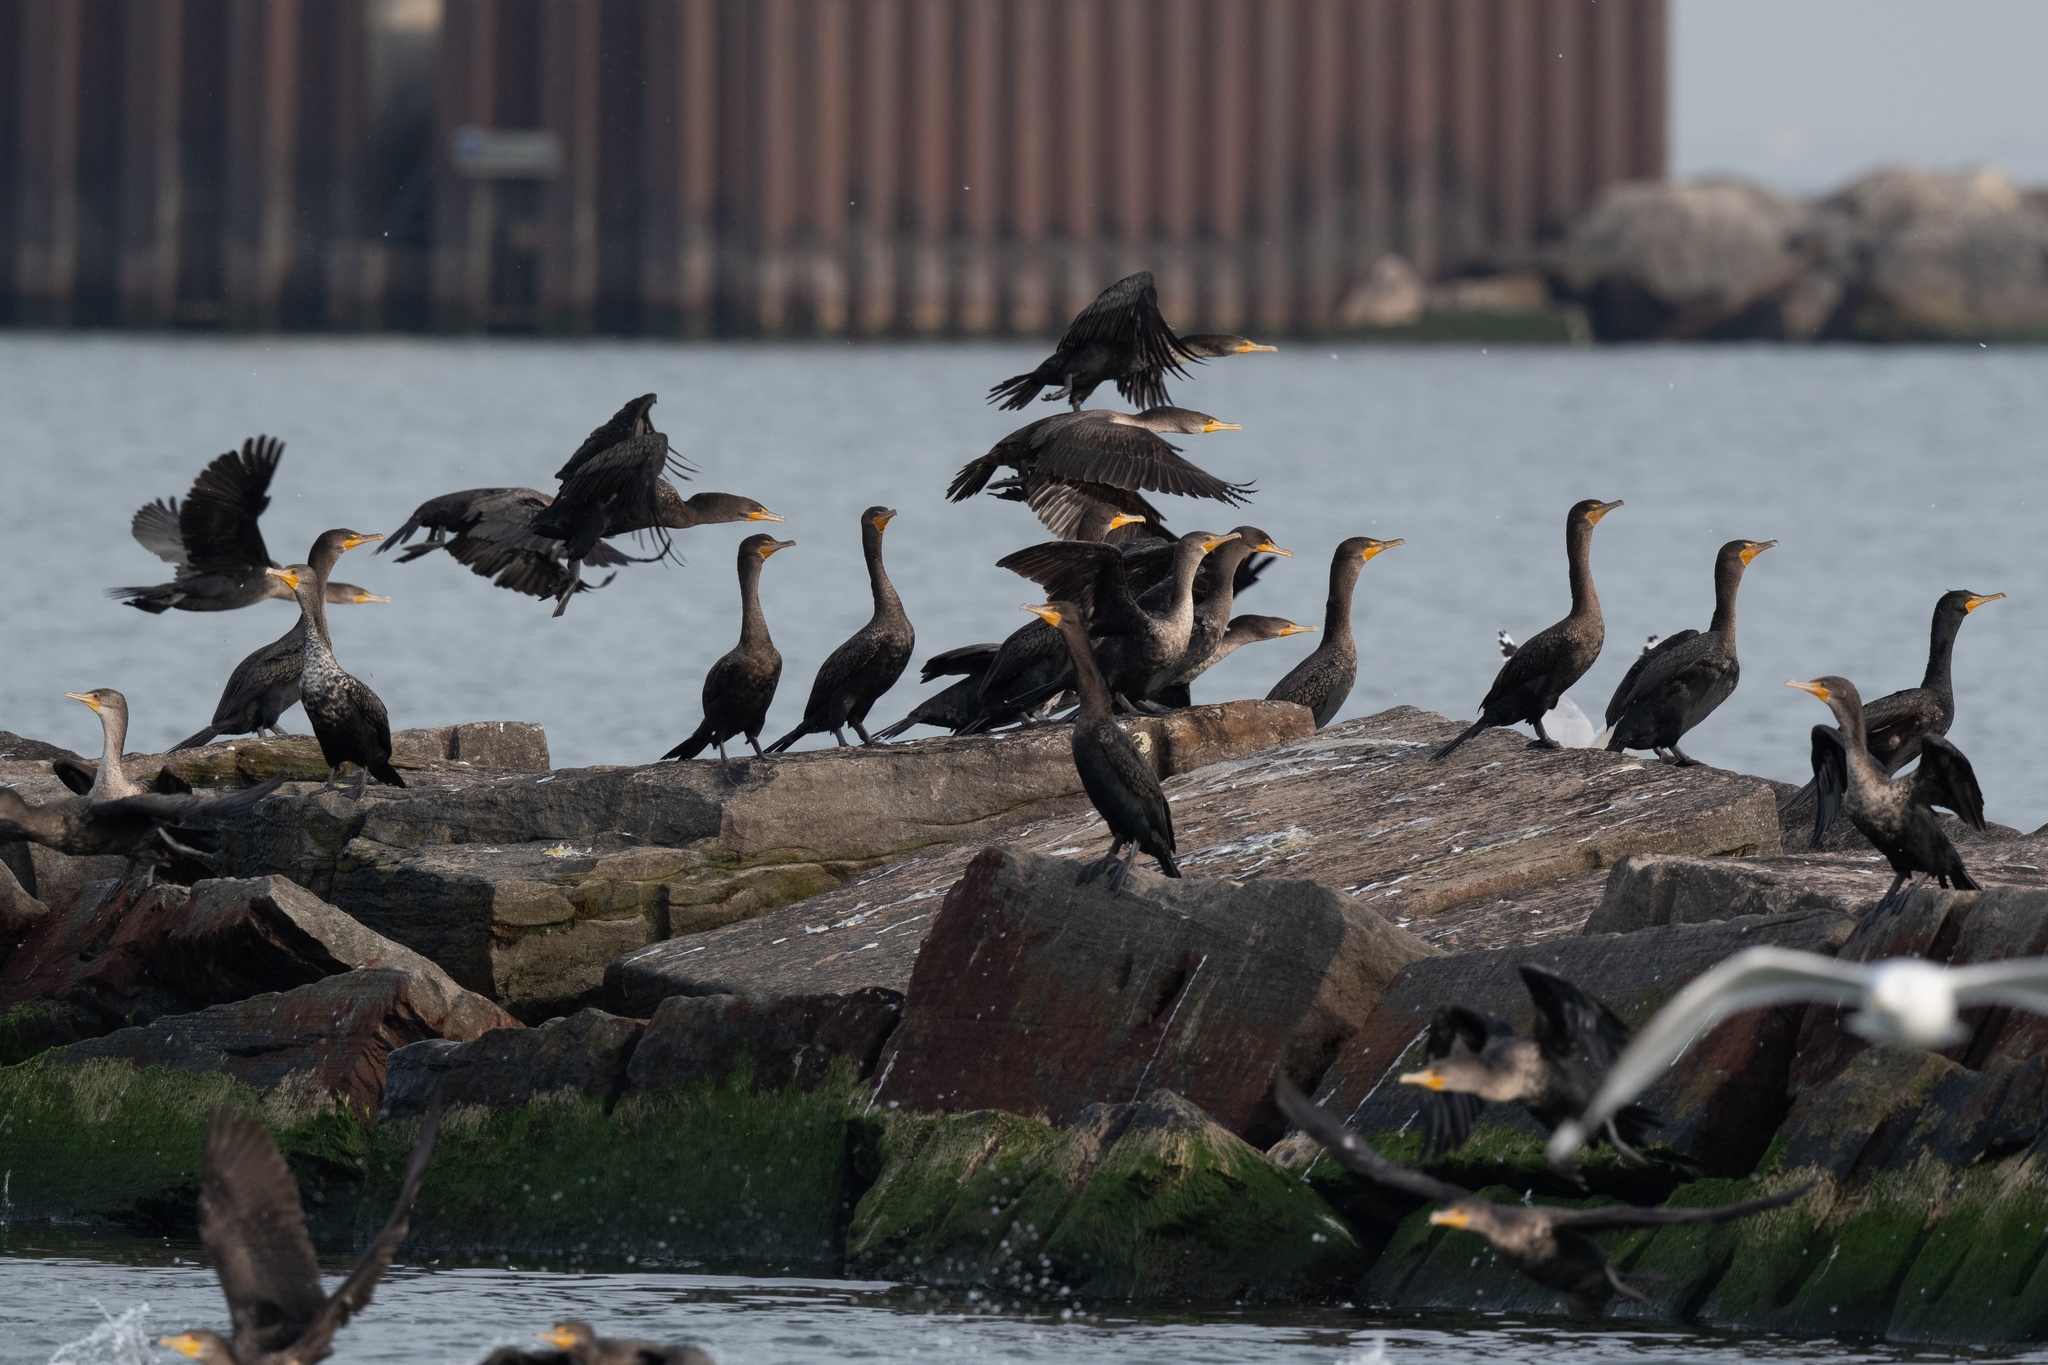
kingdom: Animalia
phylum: Chordata
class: Aves
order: Suliformes
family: Phalacrocoracidae
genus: Phalacrocorax
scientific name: Phalacrocorax auritus
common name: Double-crested cormorant
